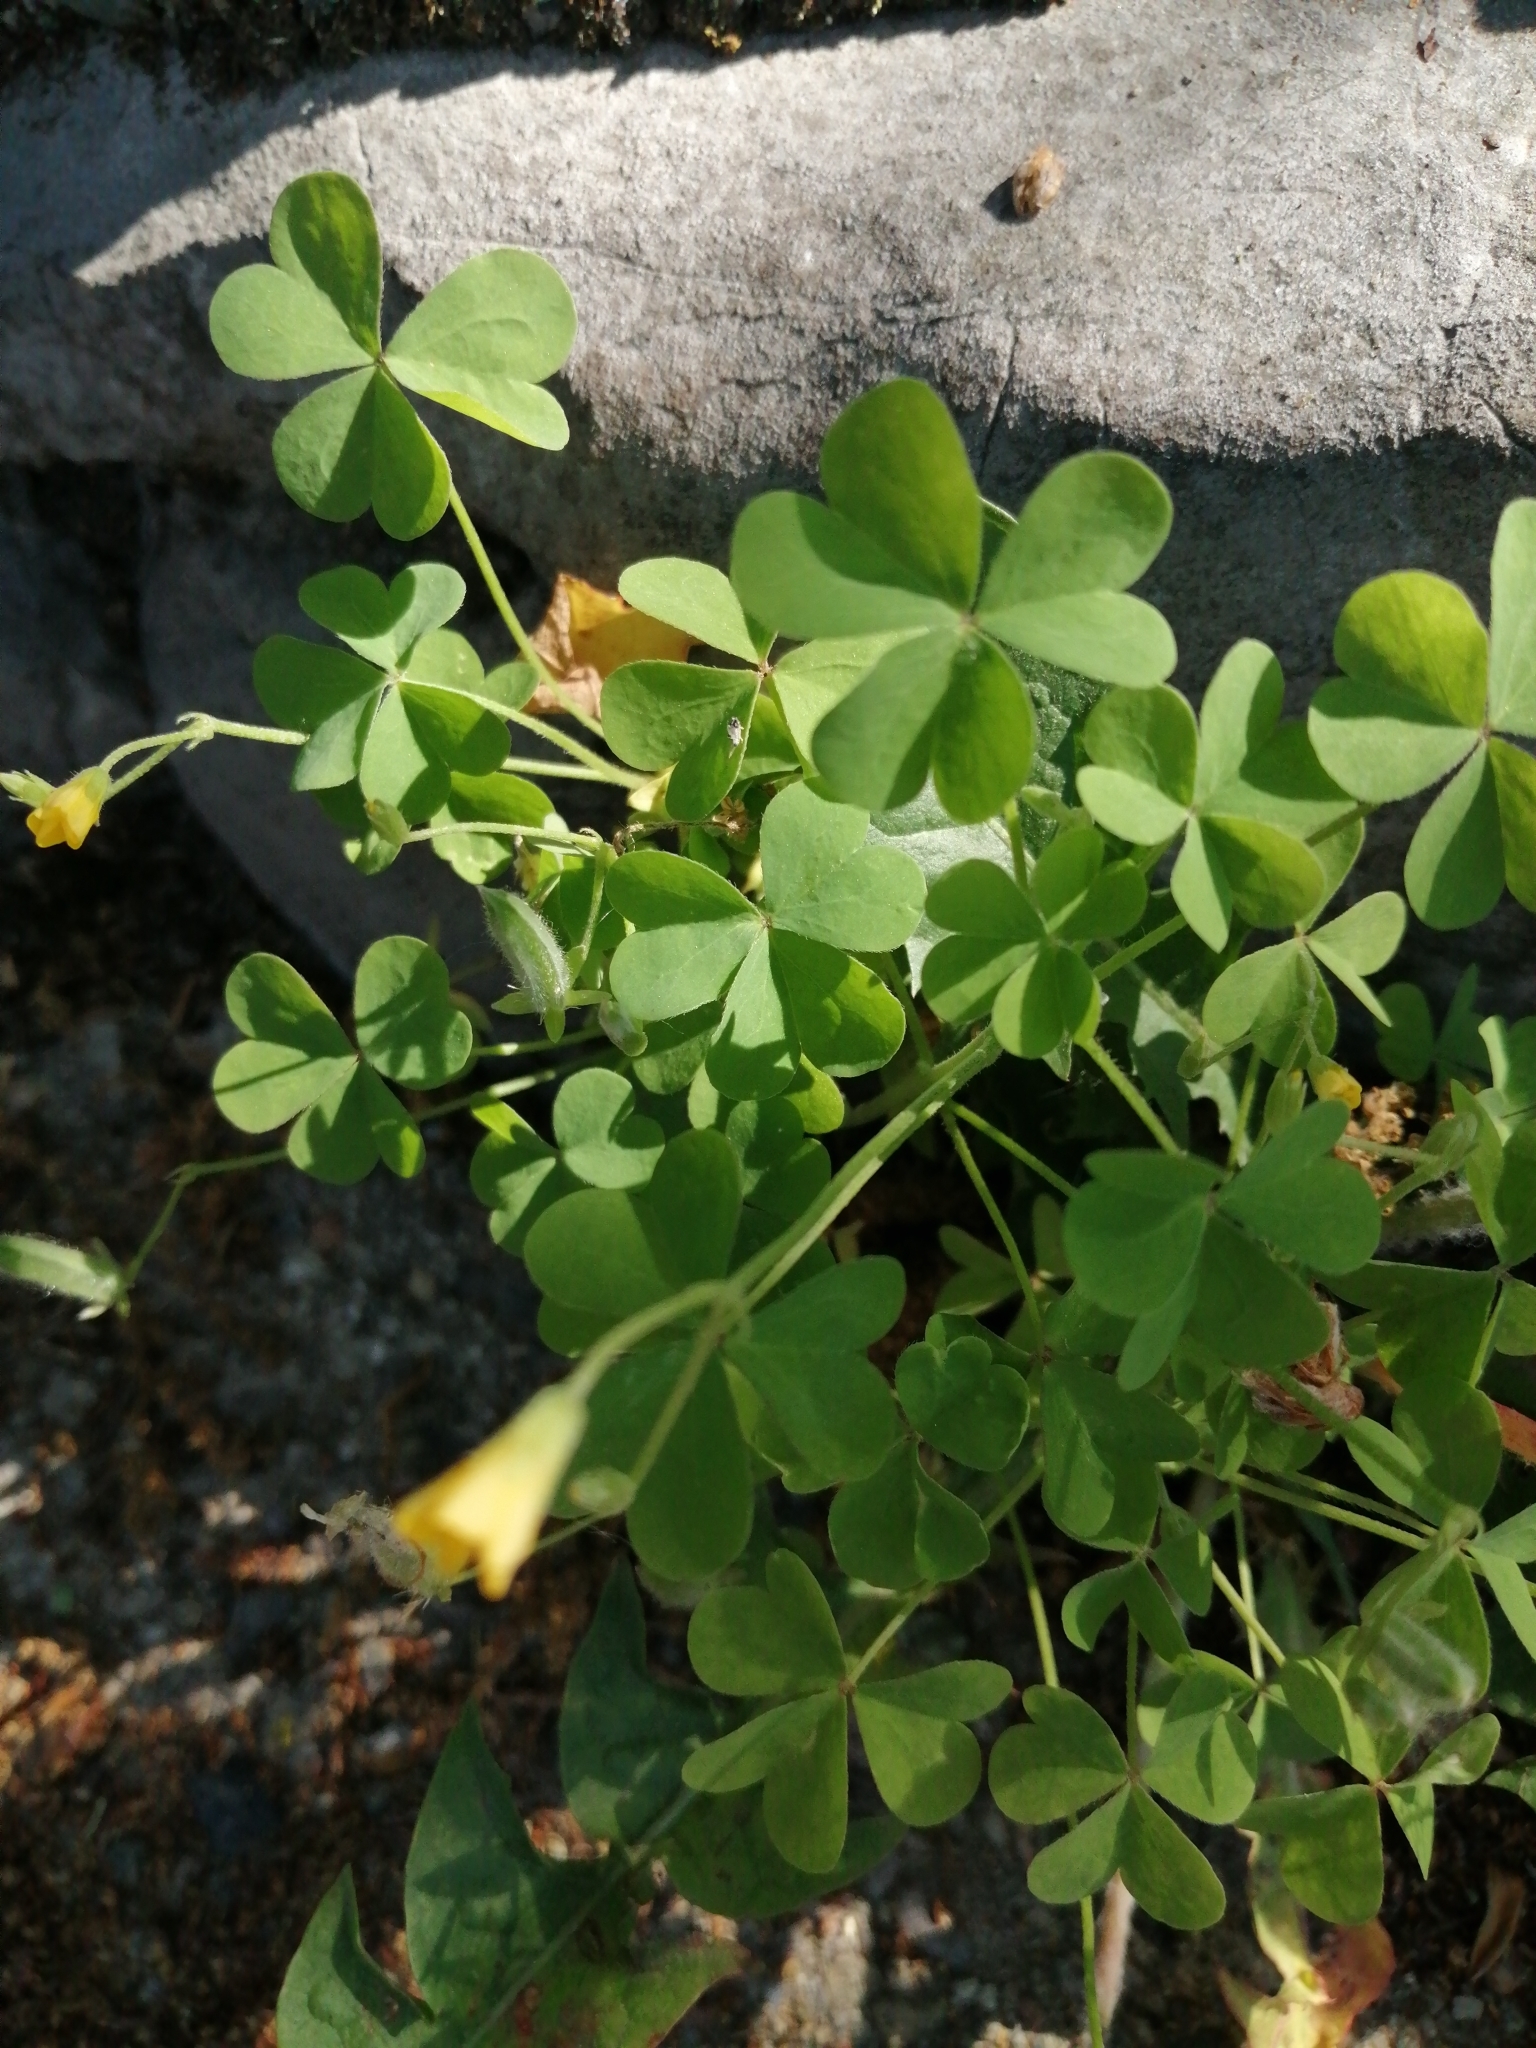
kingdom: Plantae
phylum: Tracheophyta
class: Magnoliopsida
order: Oxalidales
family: Oxalidaceae
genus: Oxalis
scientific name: Oxalis corniculata
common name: Procumbent yellow-sorrel
